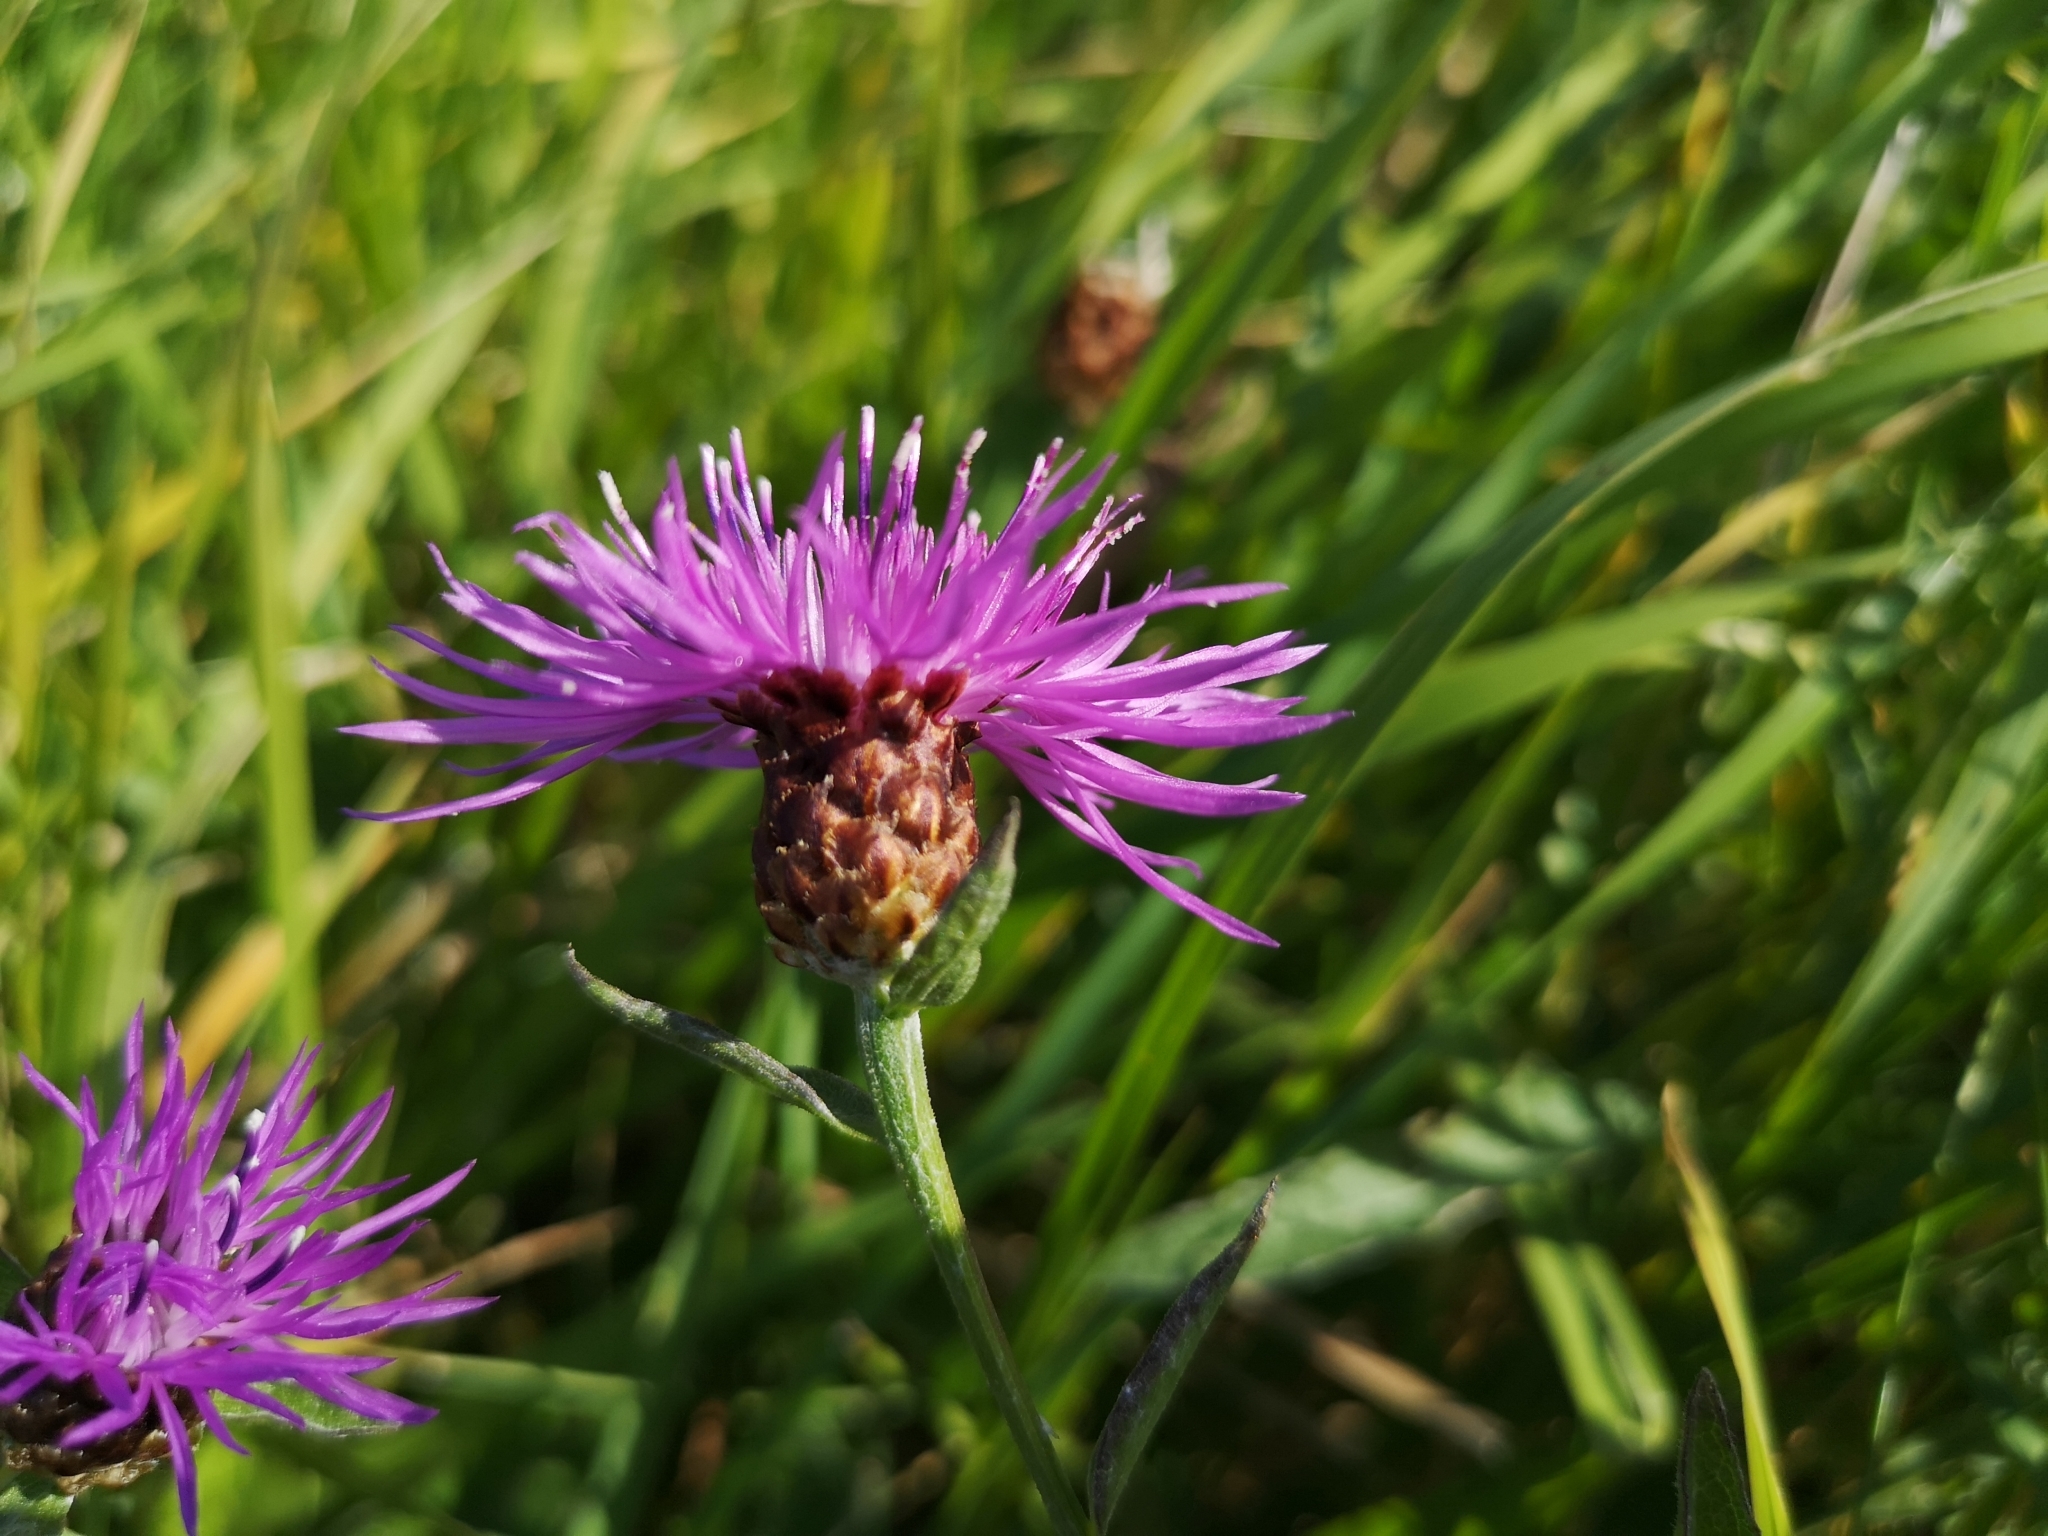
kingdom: Plantae
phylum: Tracheophyta
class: Magnoliopsida
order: Asterales
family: Asteraceae
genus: Centaurea
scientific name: Centaurea jacea
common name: Brown knapweed
